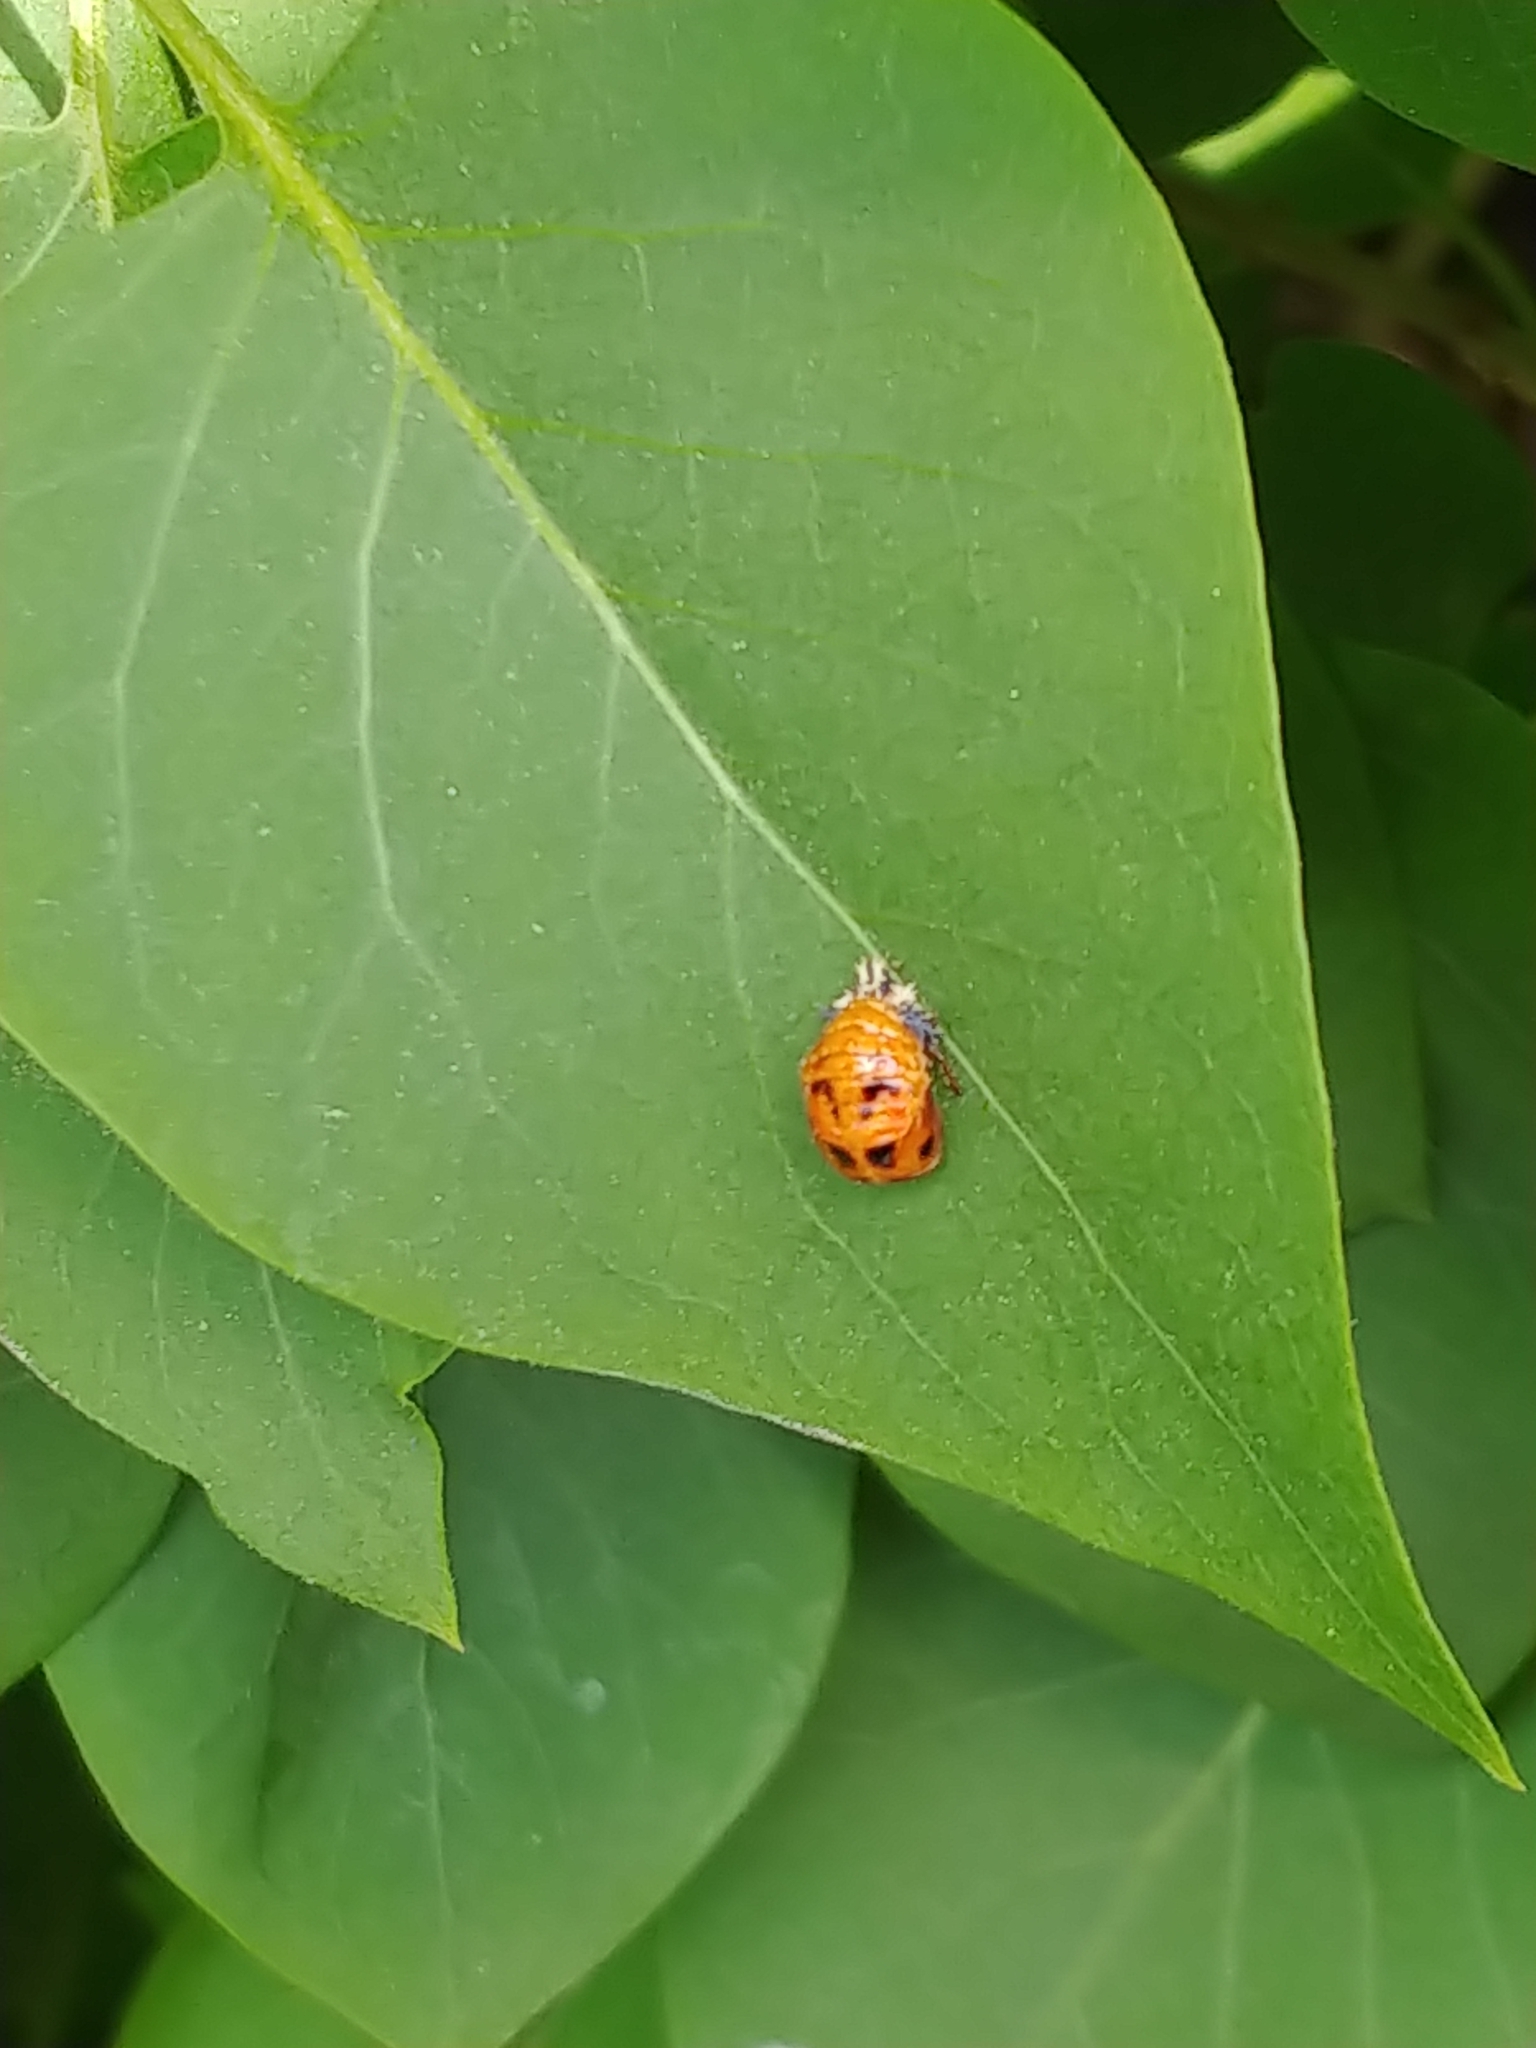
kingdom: Animalia
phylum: Arthropoda
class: Insecta
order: Coleoptera
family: Coccinellidae
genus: Harmonia
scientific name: Harmonia axyridis
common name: Harlequin ladybird
